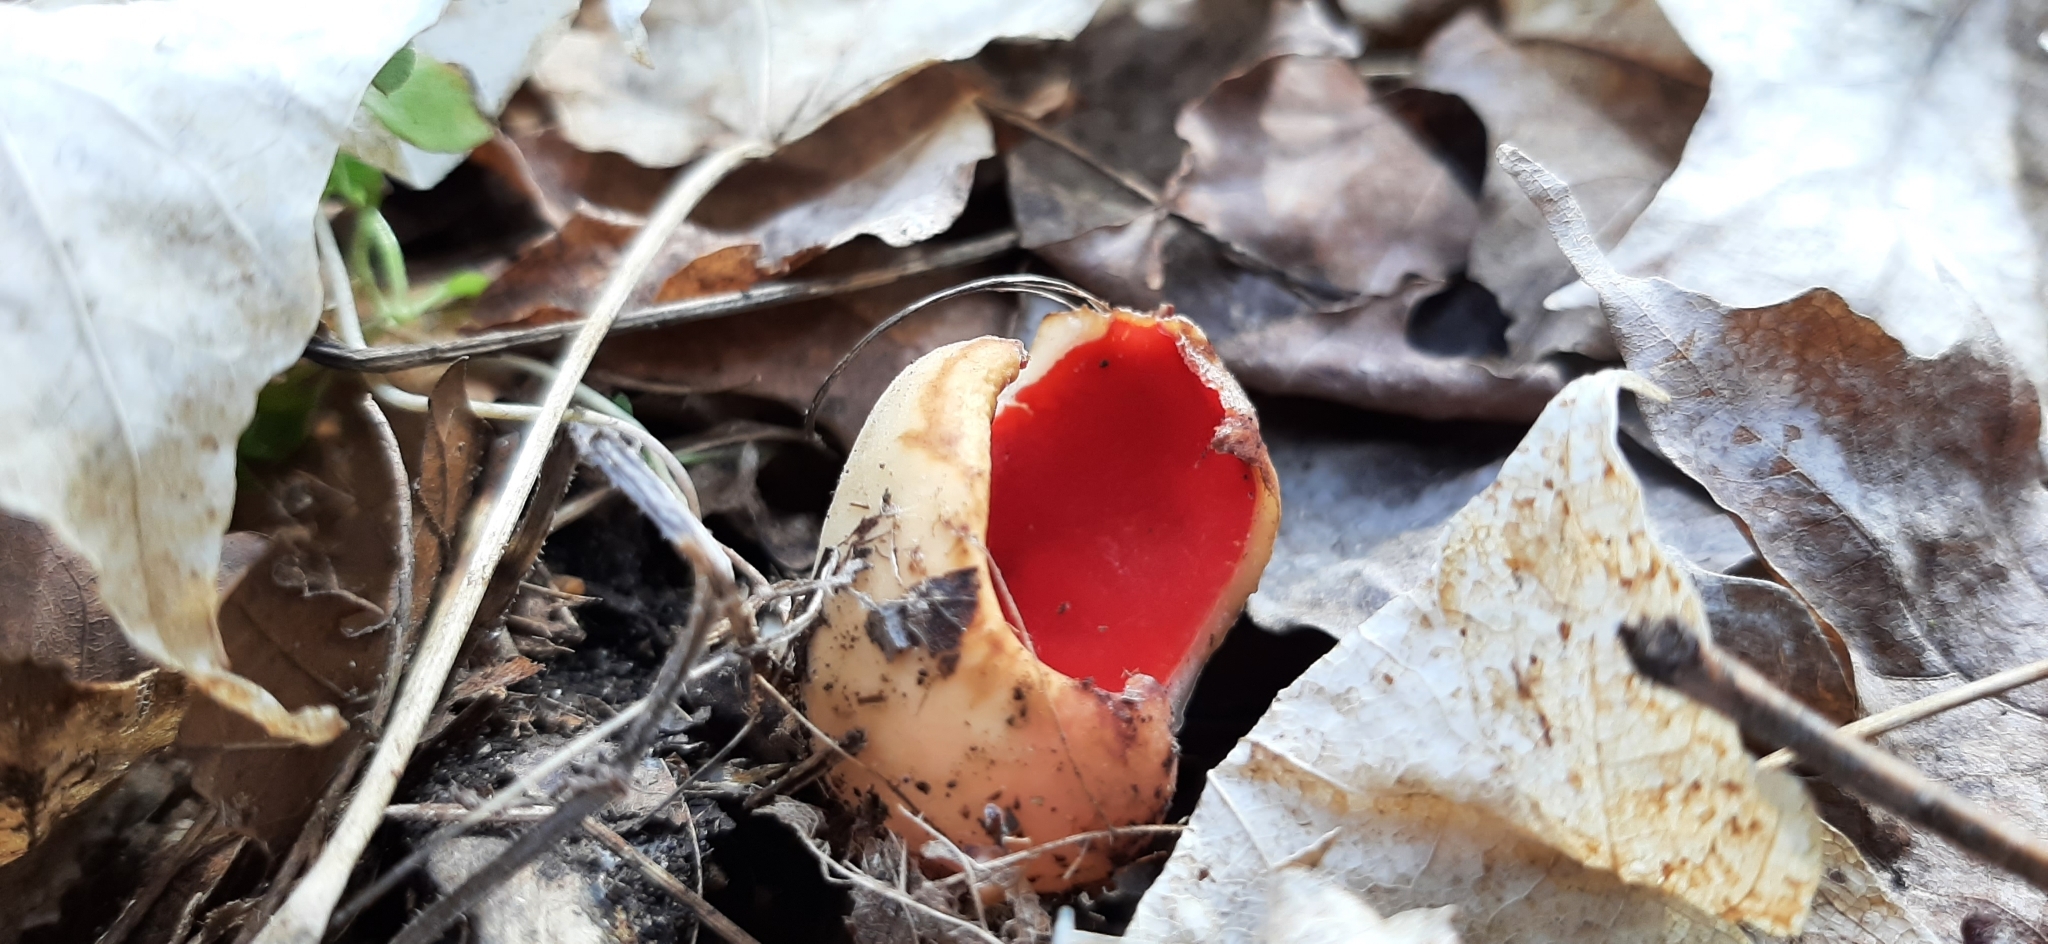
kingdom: Fungi
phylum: Ascomycota
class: Pezizomycetes
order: Pezizales
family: Sarcoscyphaceae
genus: Sarcoscypha
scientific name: Sarcoscypha austriaca
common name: Scarlet elfcup
